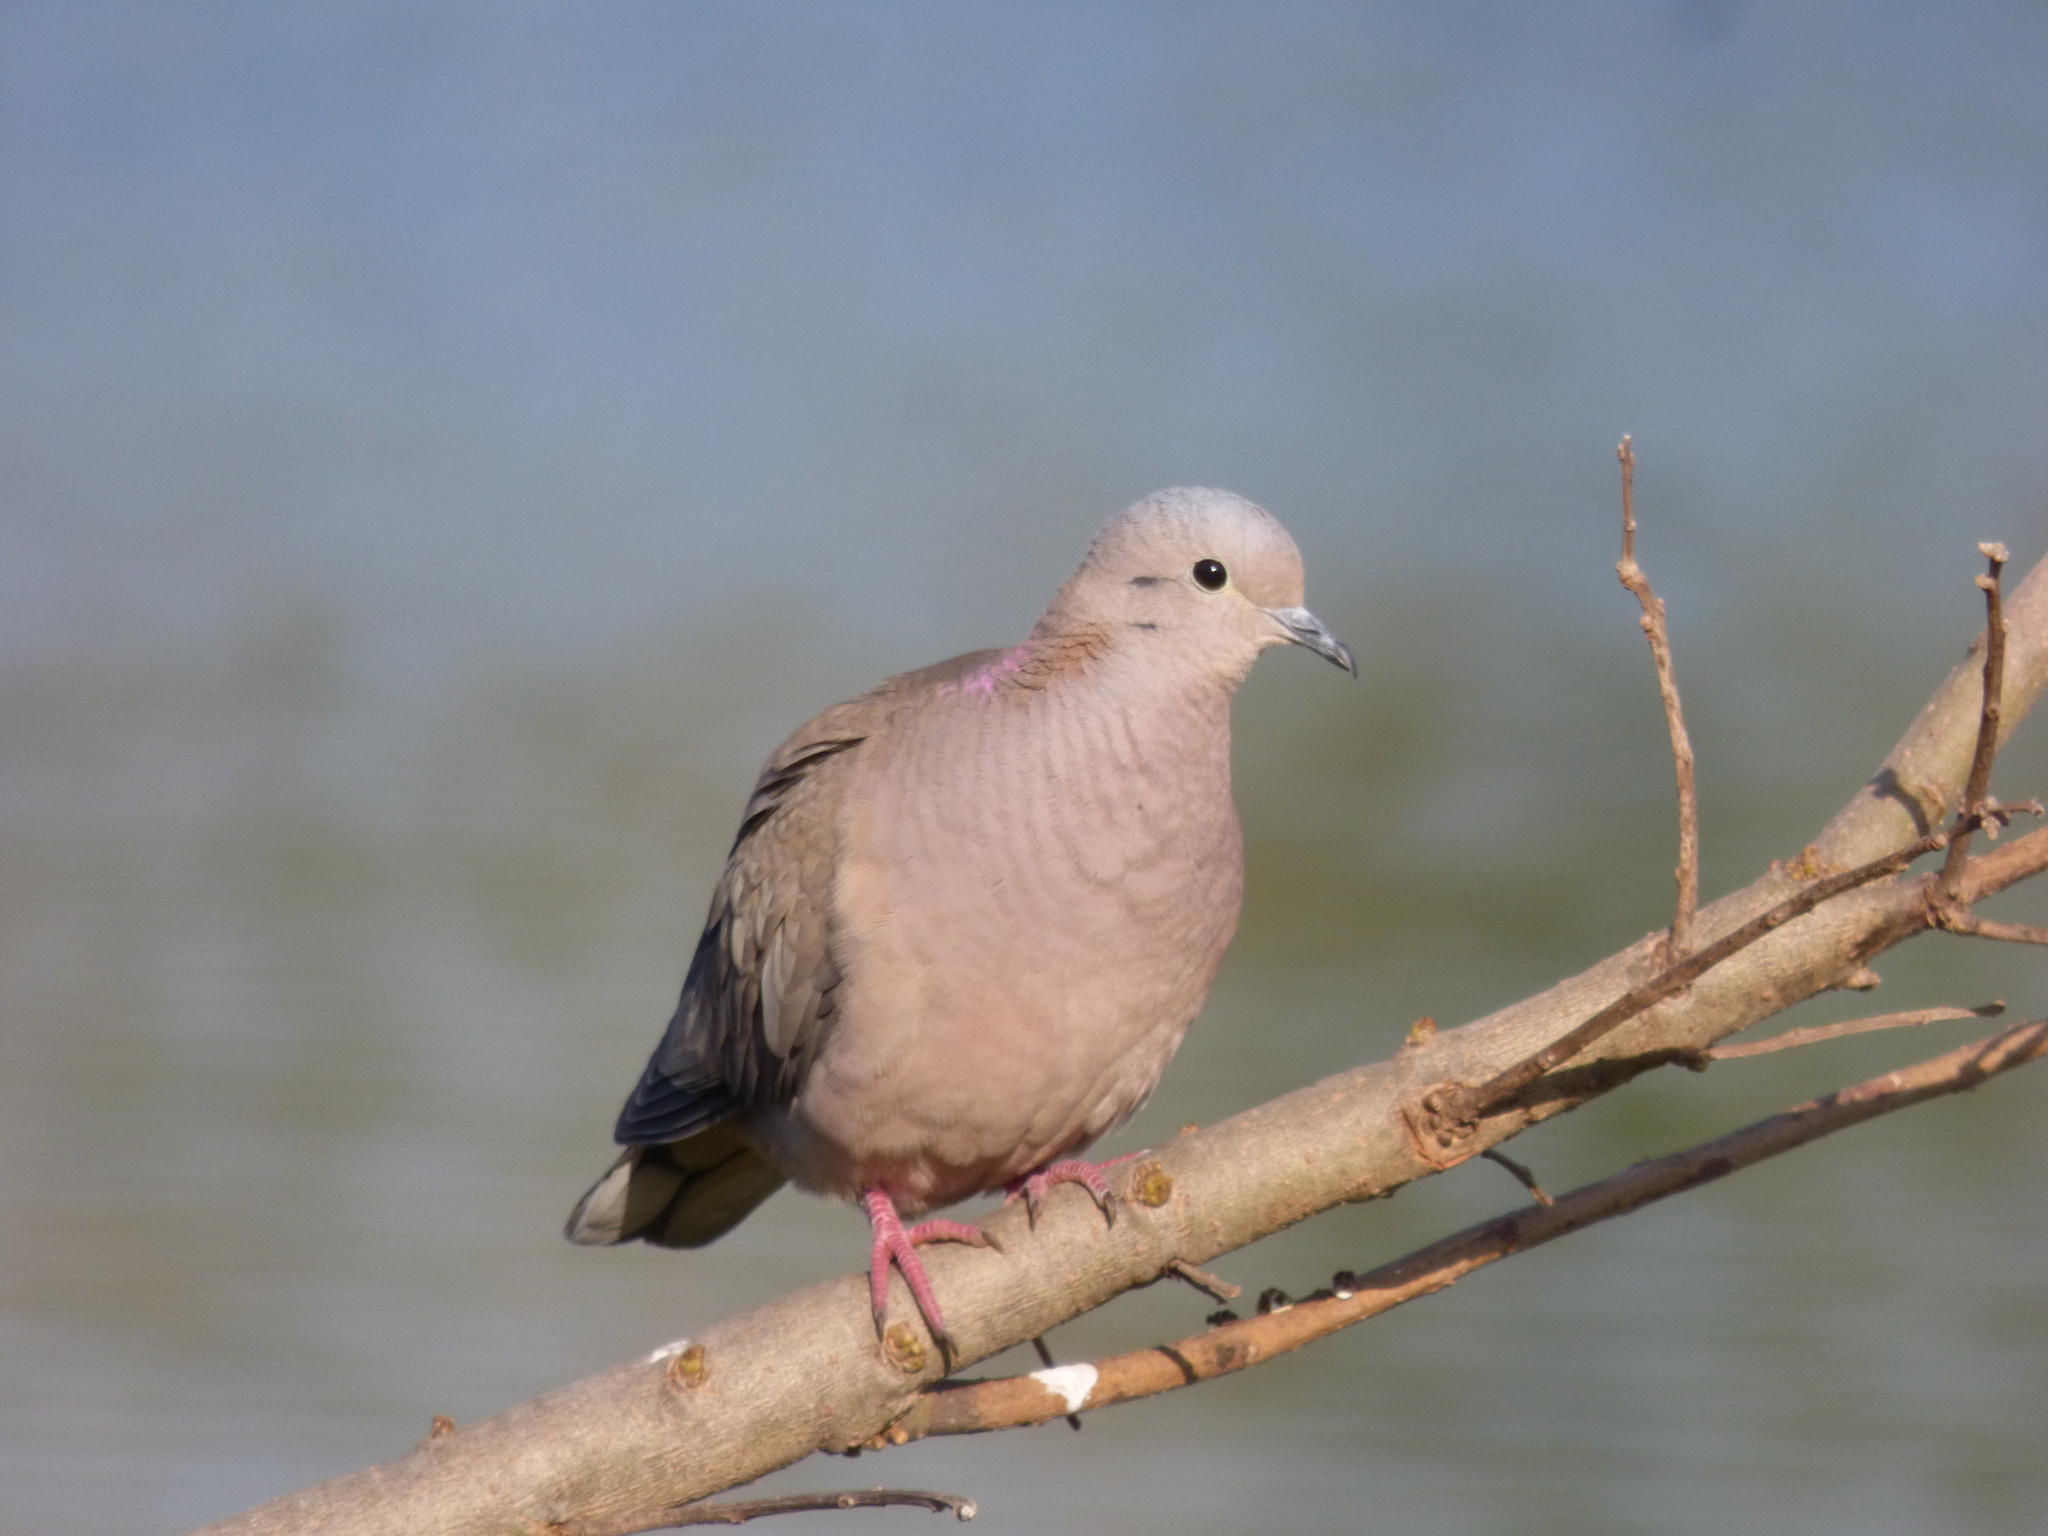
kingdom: Animalia
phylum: Chordata
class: Aves
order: Columbiformes
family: Columbidae
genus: Zenaida
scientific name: Zenaida auriculata
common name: Eared dove
